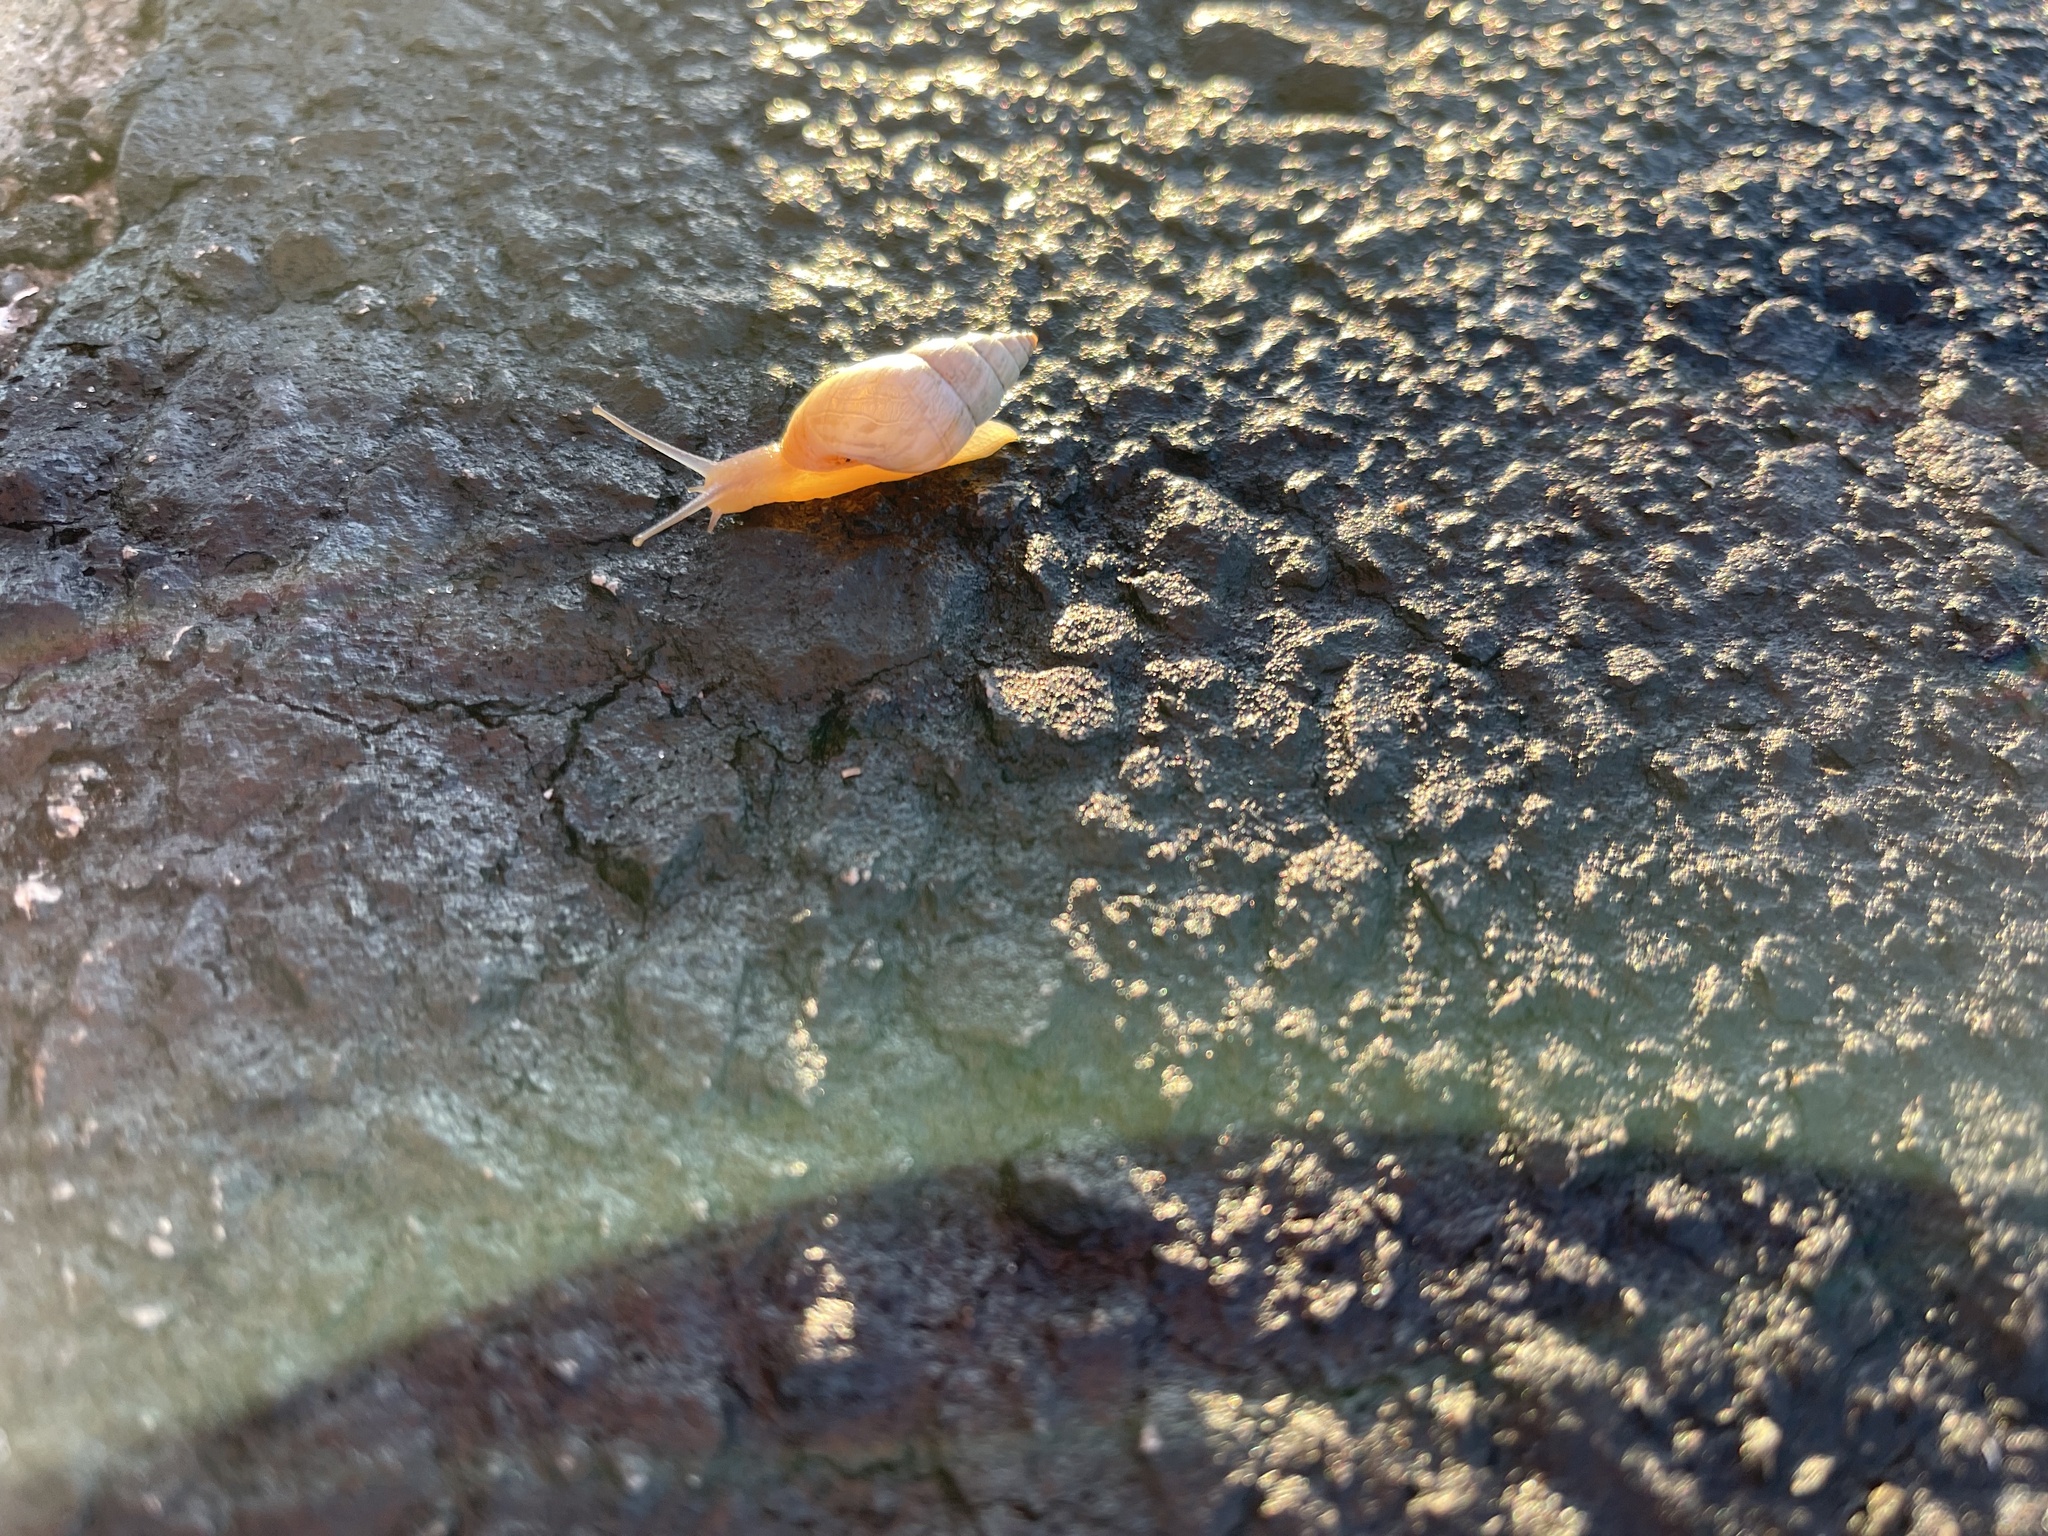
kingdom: Animalia
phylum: Mollusca
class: Gastropoda
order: Stylommatophora
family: Bulimulidae
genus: Bulimulus
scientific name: Bulimulus bonariensis
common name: Snail
